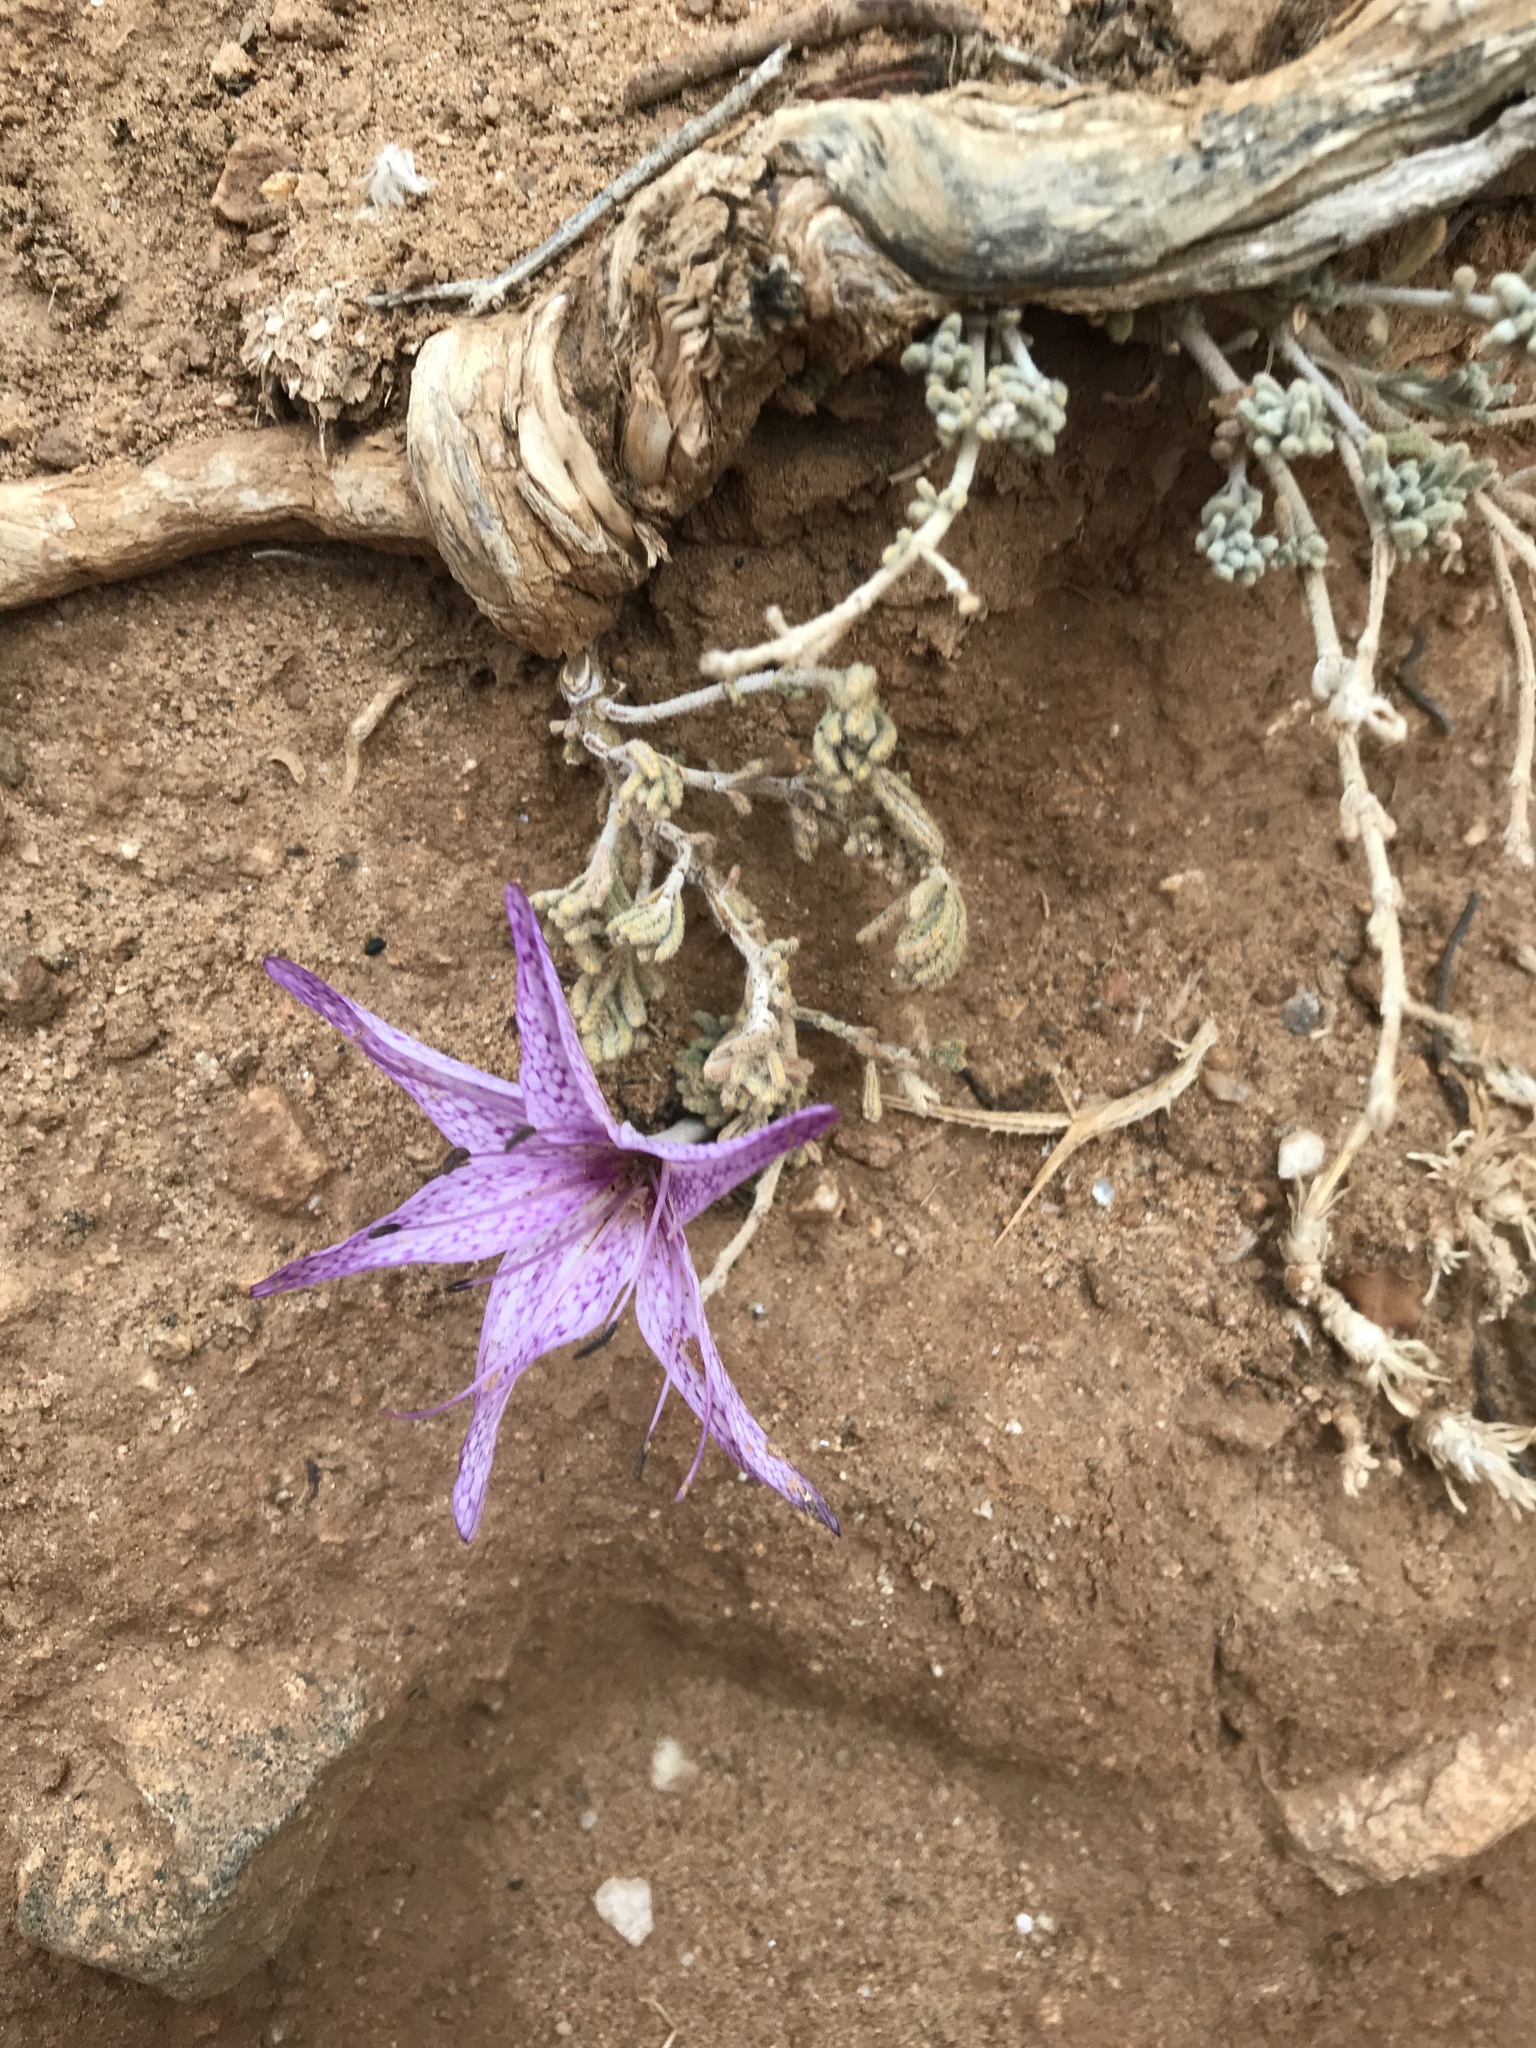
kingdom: Plantae
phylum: Tracheophyta
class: Liliopsida
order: Liliales
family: Colchicaceae
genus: Colchicum
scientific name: Colchicum variegatum
